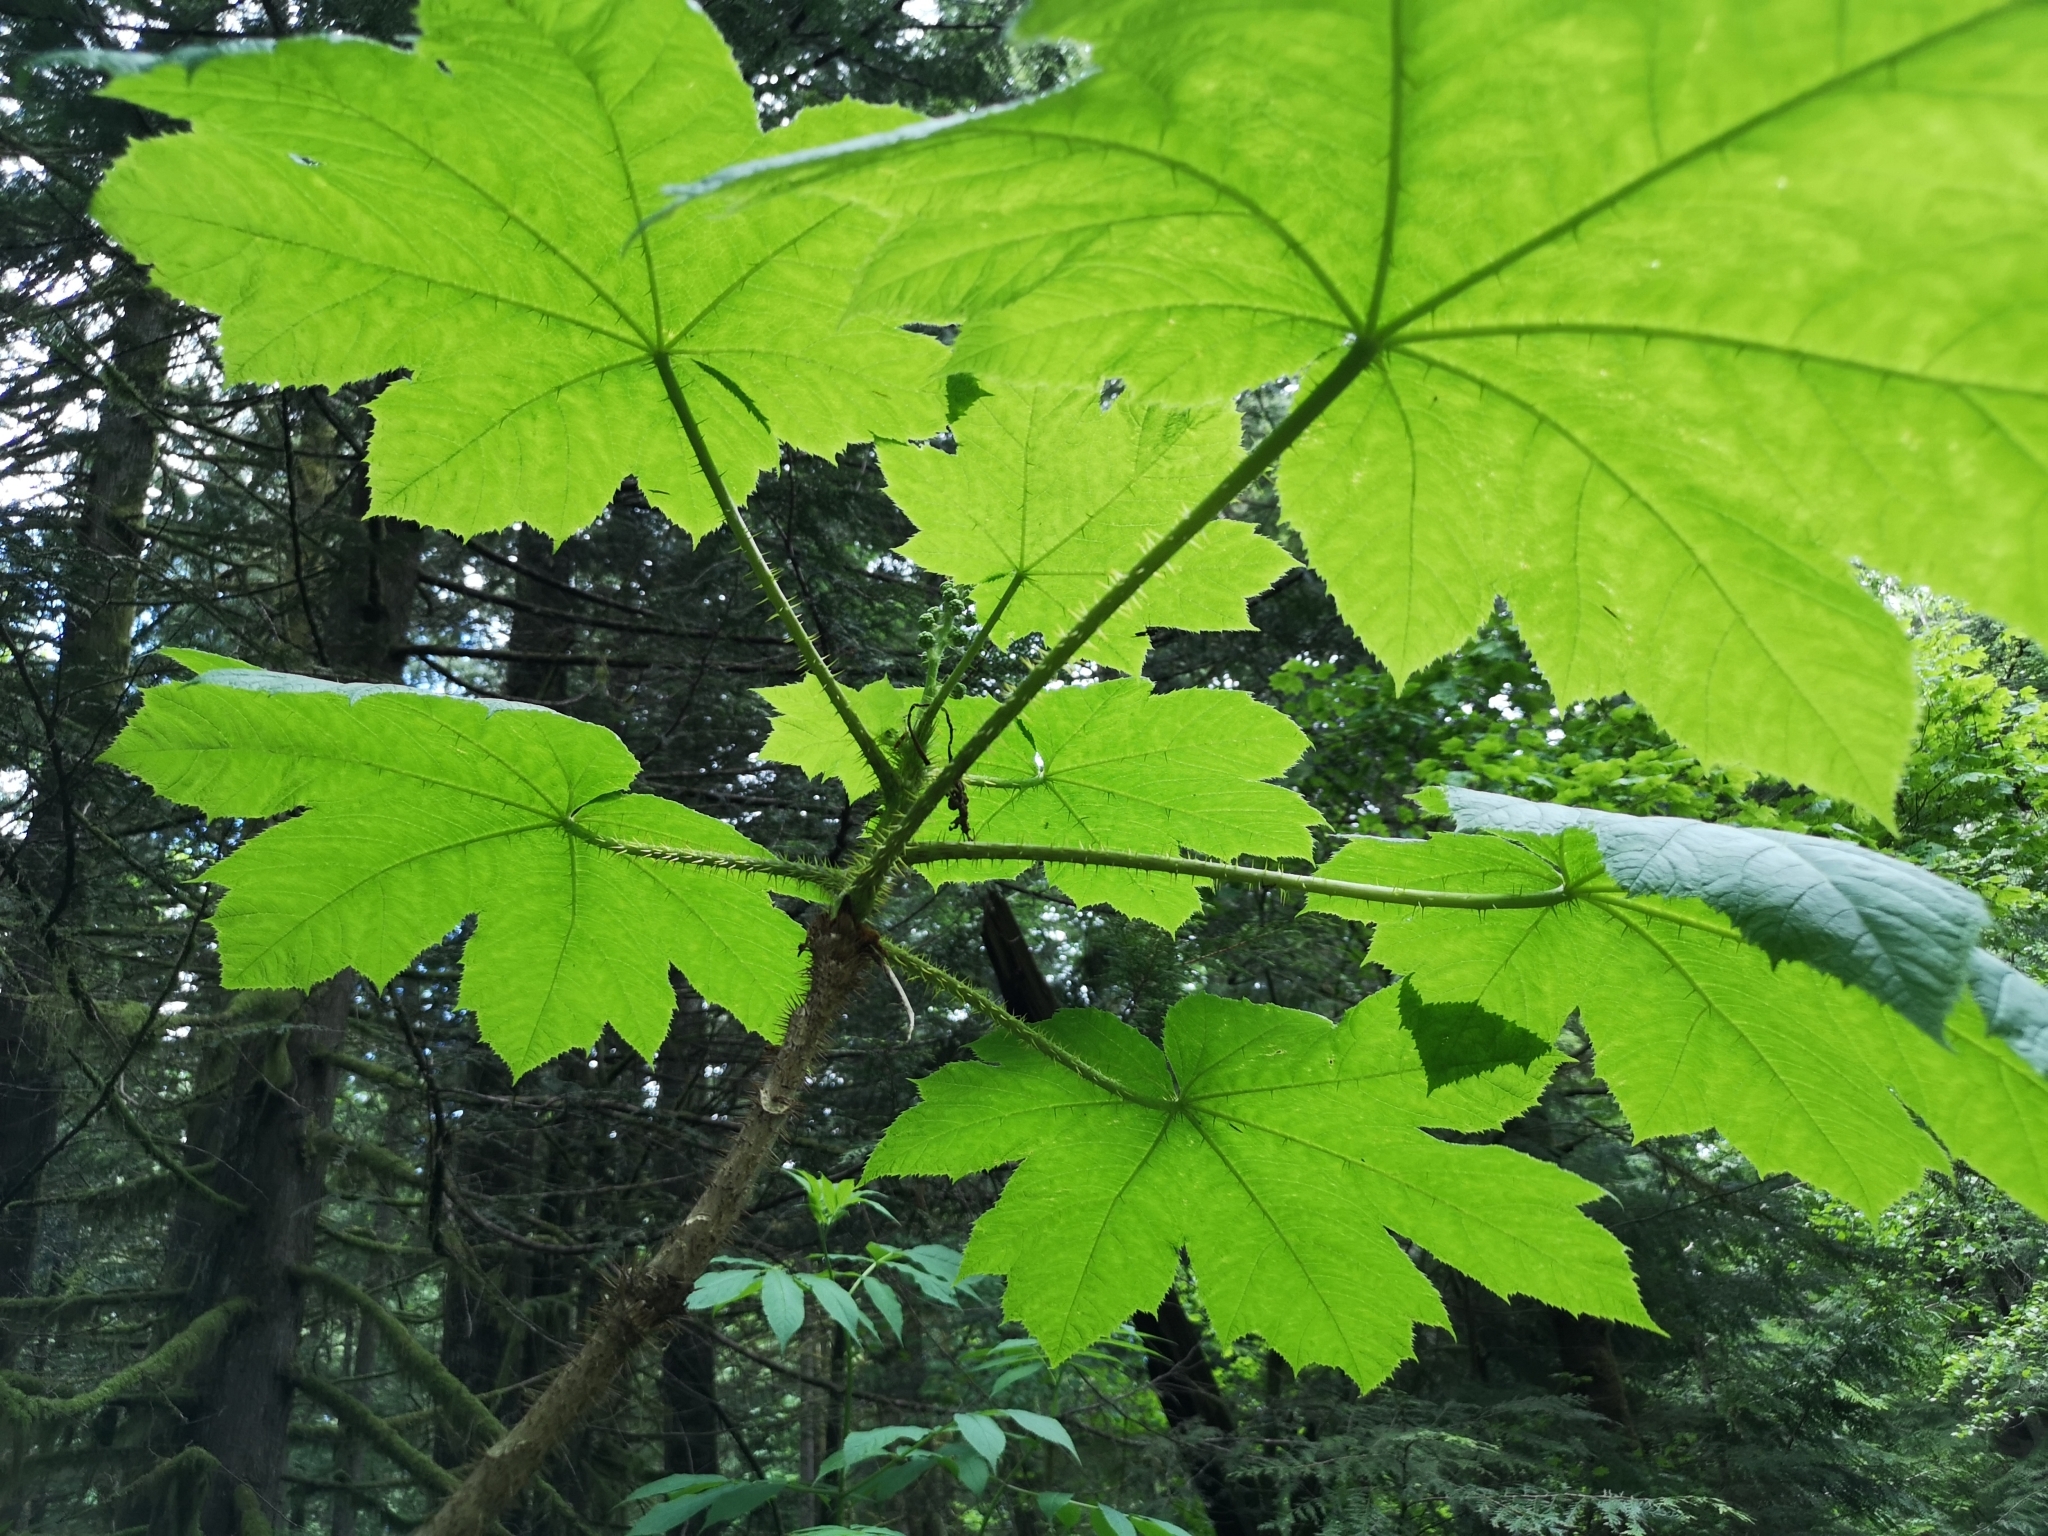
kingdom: Plantae
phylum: Tracheophyta
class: Magnoliopsida
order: Apiales
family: Araliaceae
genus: Oplopanax
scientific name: Oplopanax horridus
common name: Devil's walking-stick
